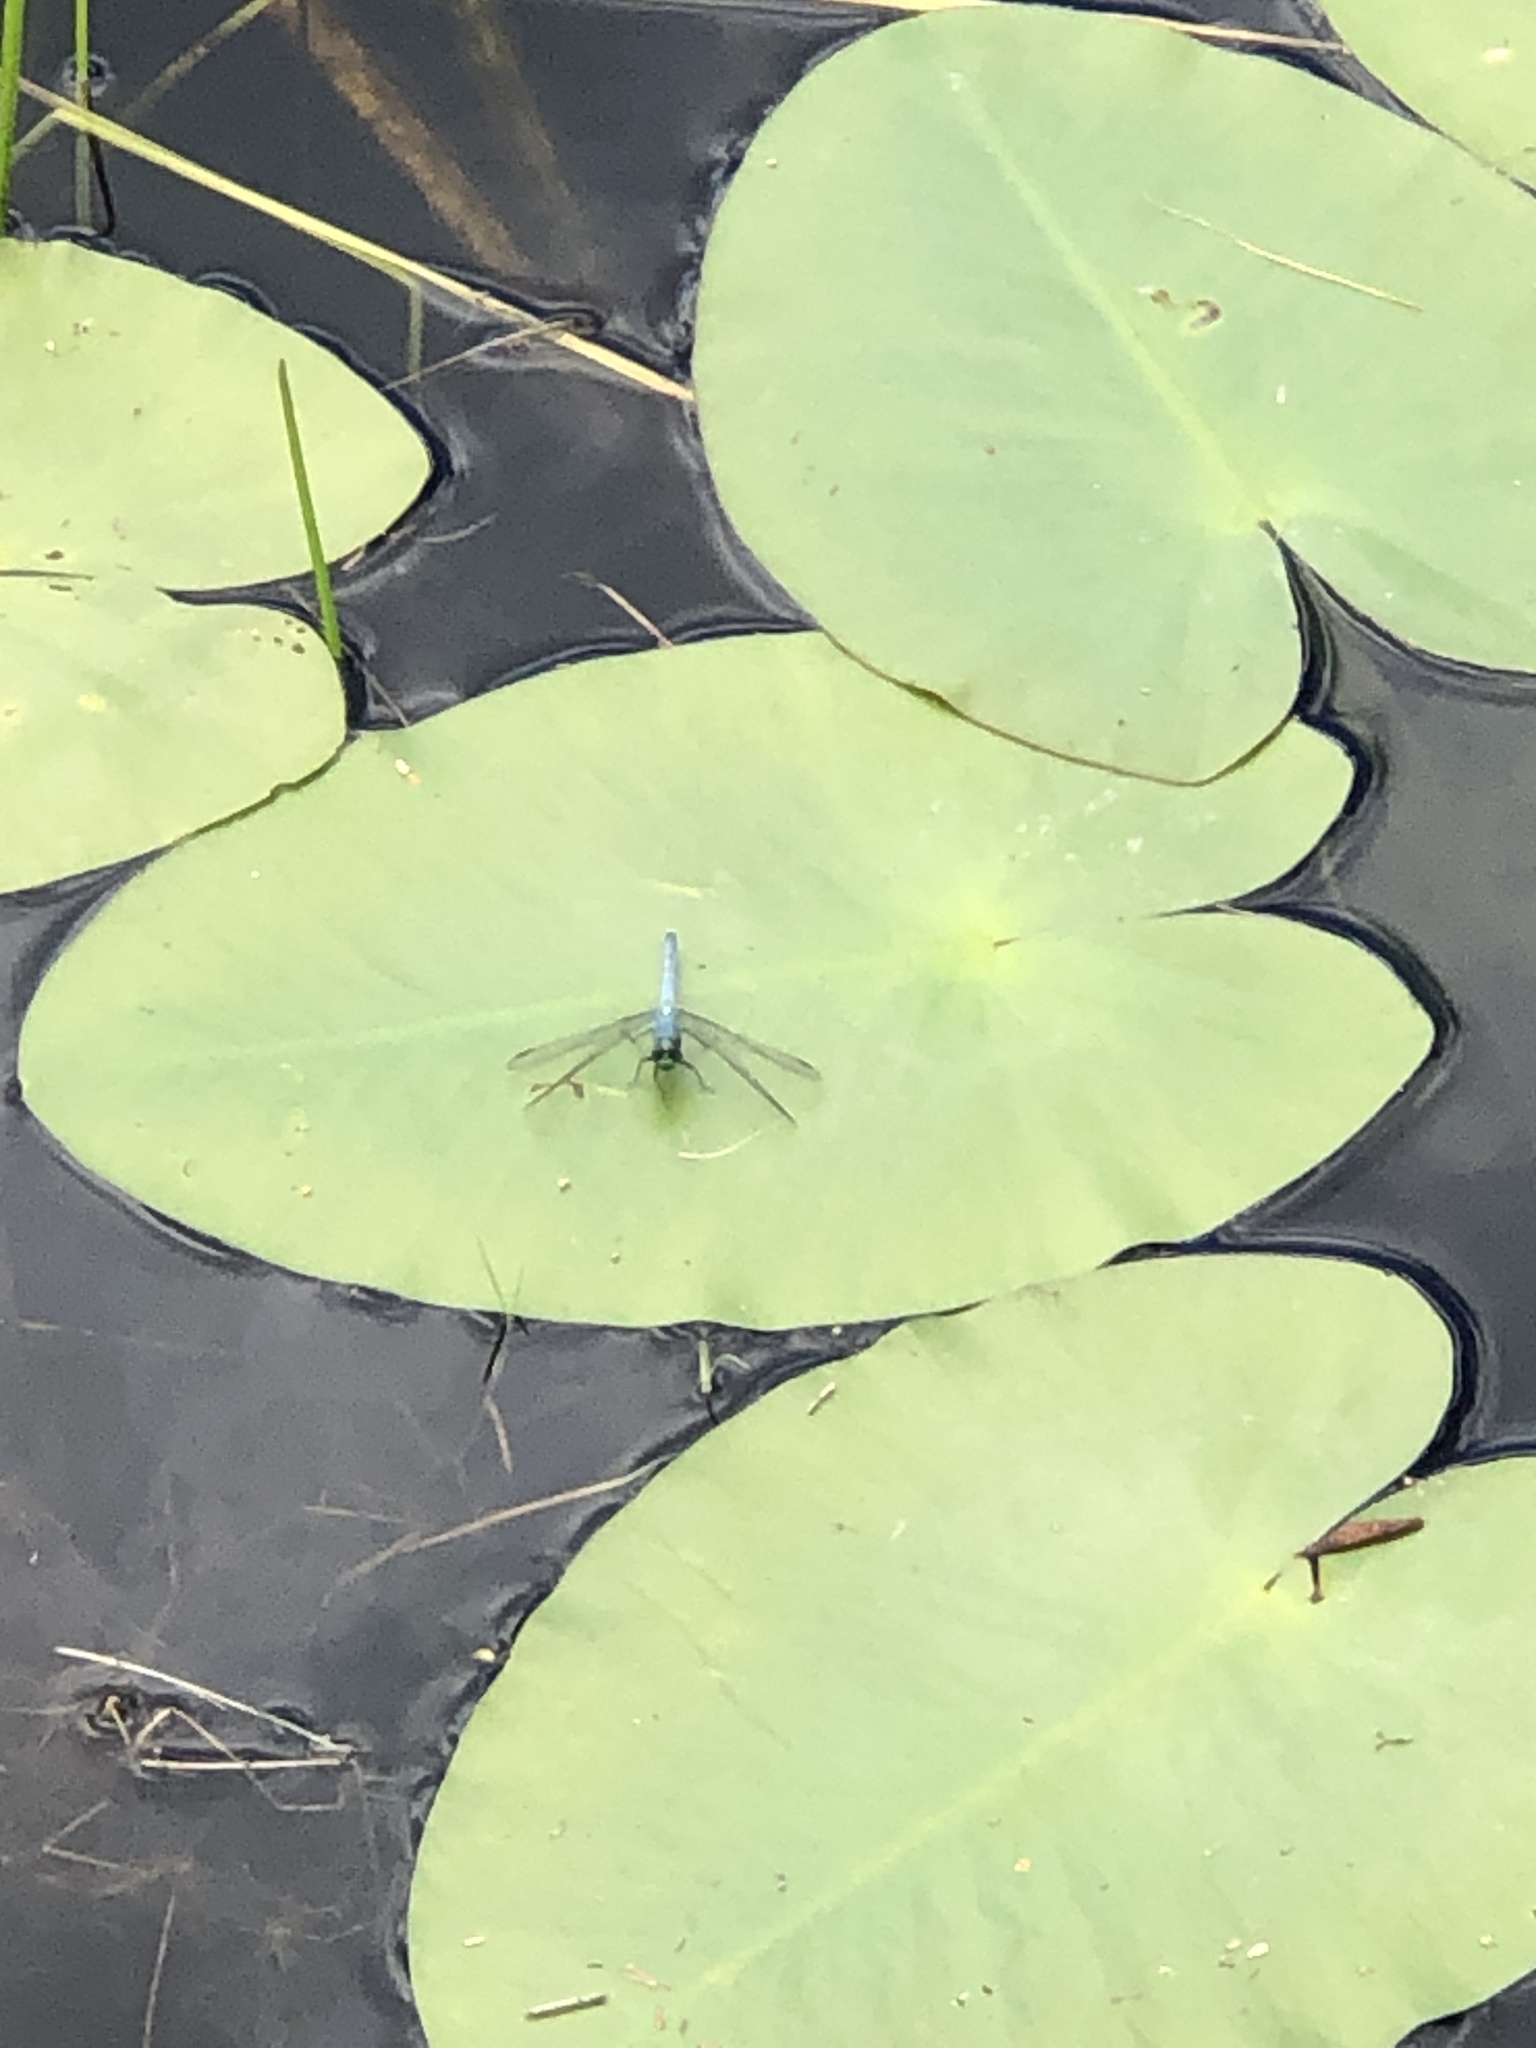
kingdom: Animalia
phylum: Arthropoda
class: Insecta
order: Odonata
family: Libellulidae
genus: Erythemis
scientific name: Erythemis simplicicollis
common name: Eastern pondhawk
